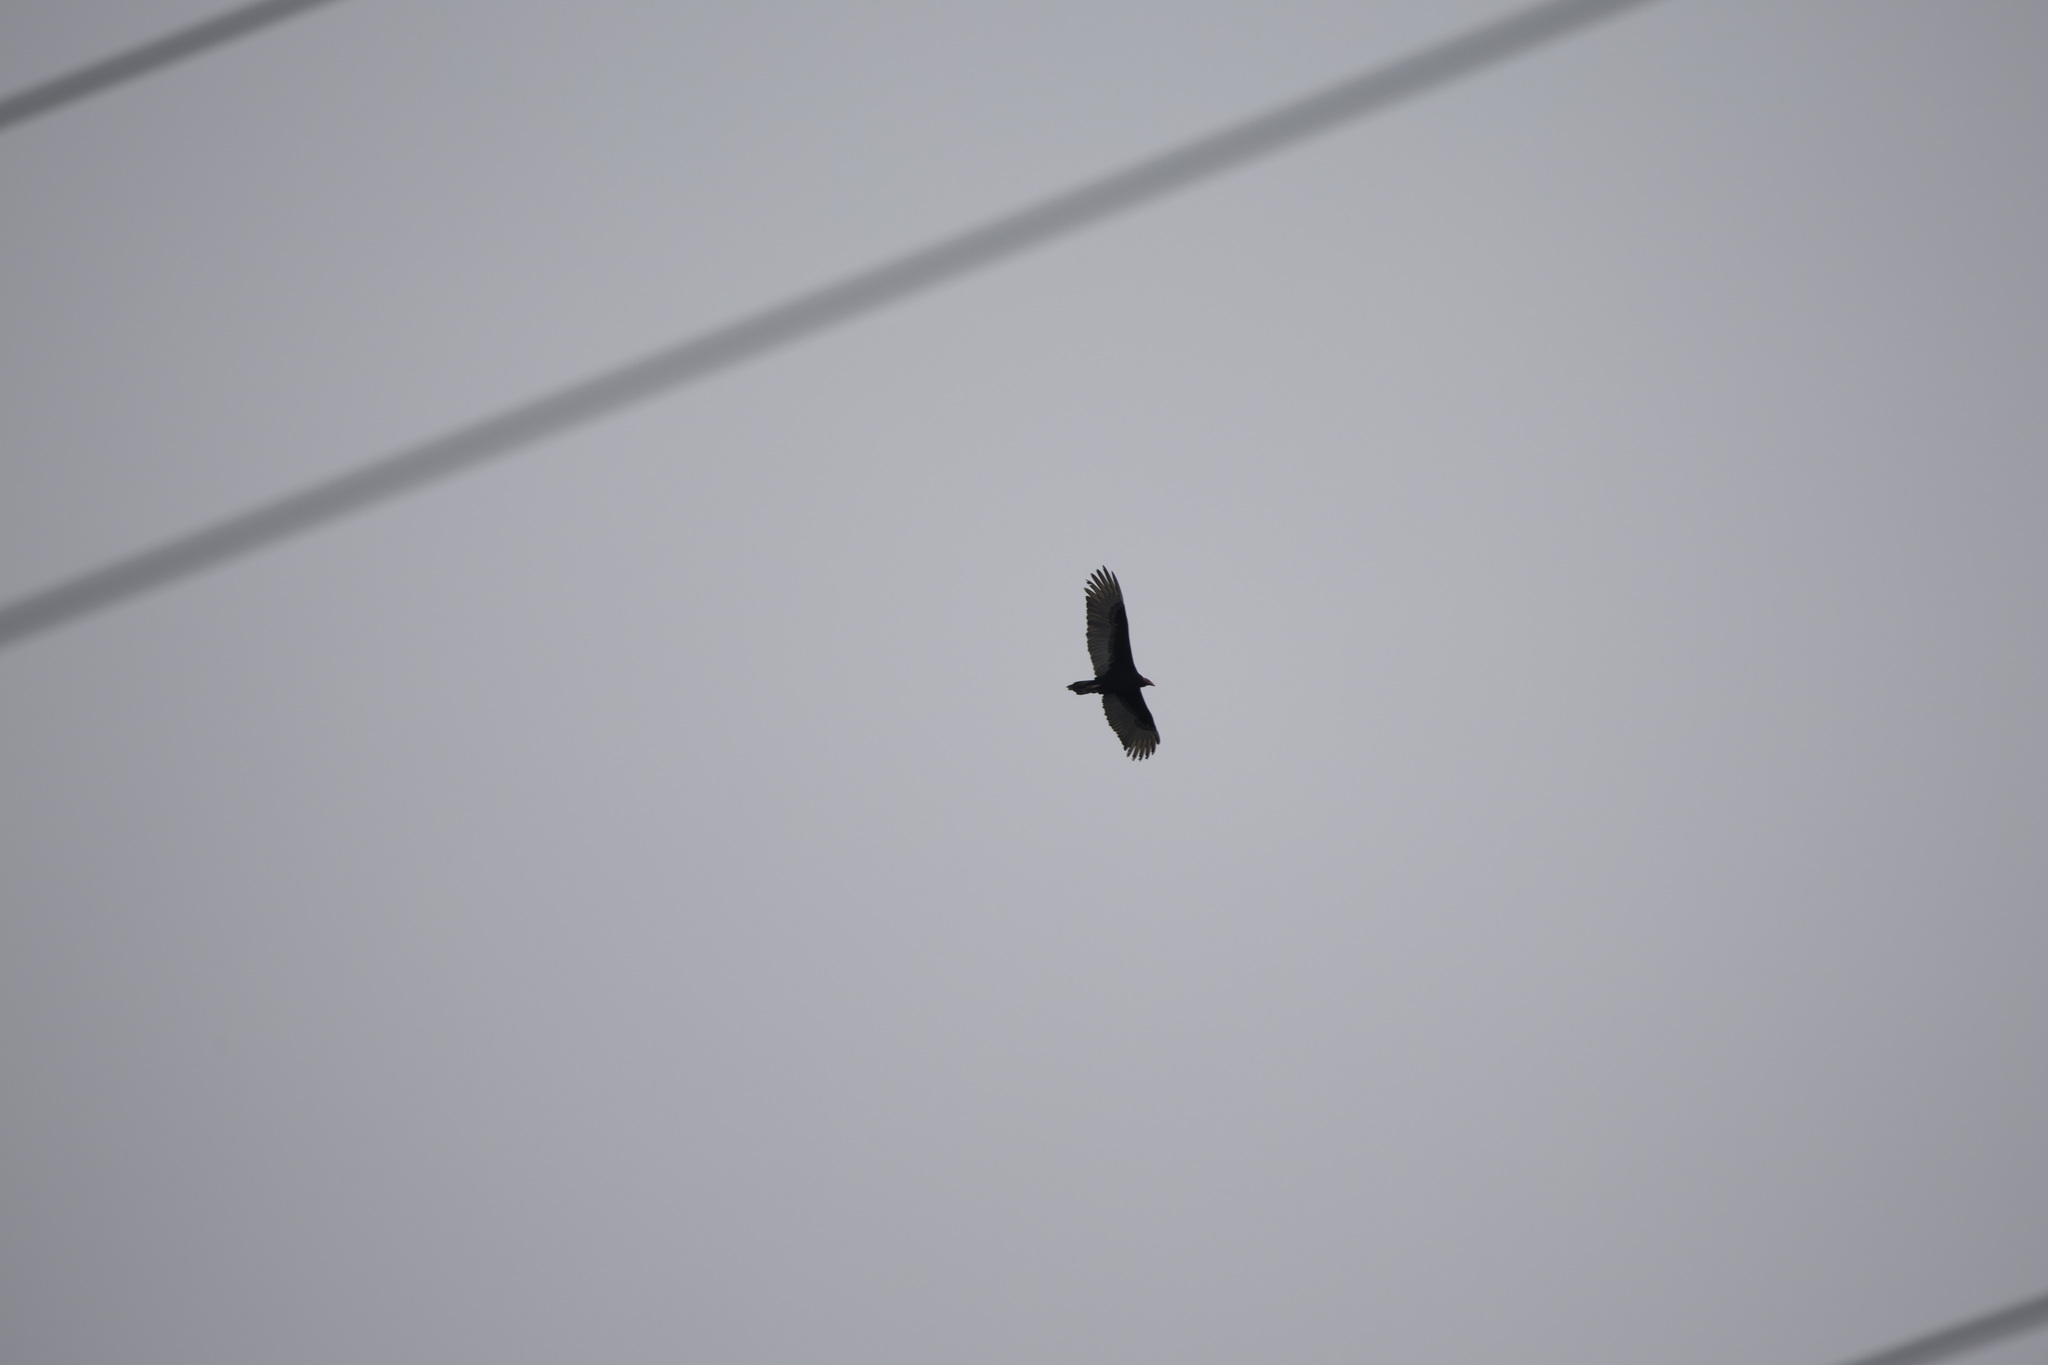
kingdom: Animalia
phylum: Chordata
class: Aves
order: Accipitriformes
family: Cathartidae
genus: Cathartes
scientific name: Cathartes aura
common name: Turkey vulture
